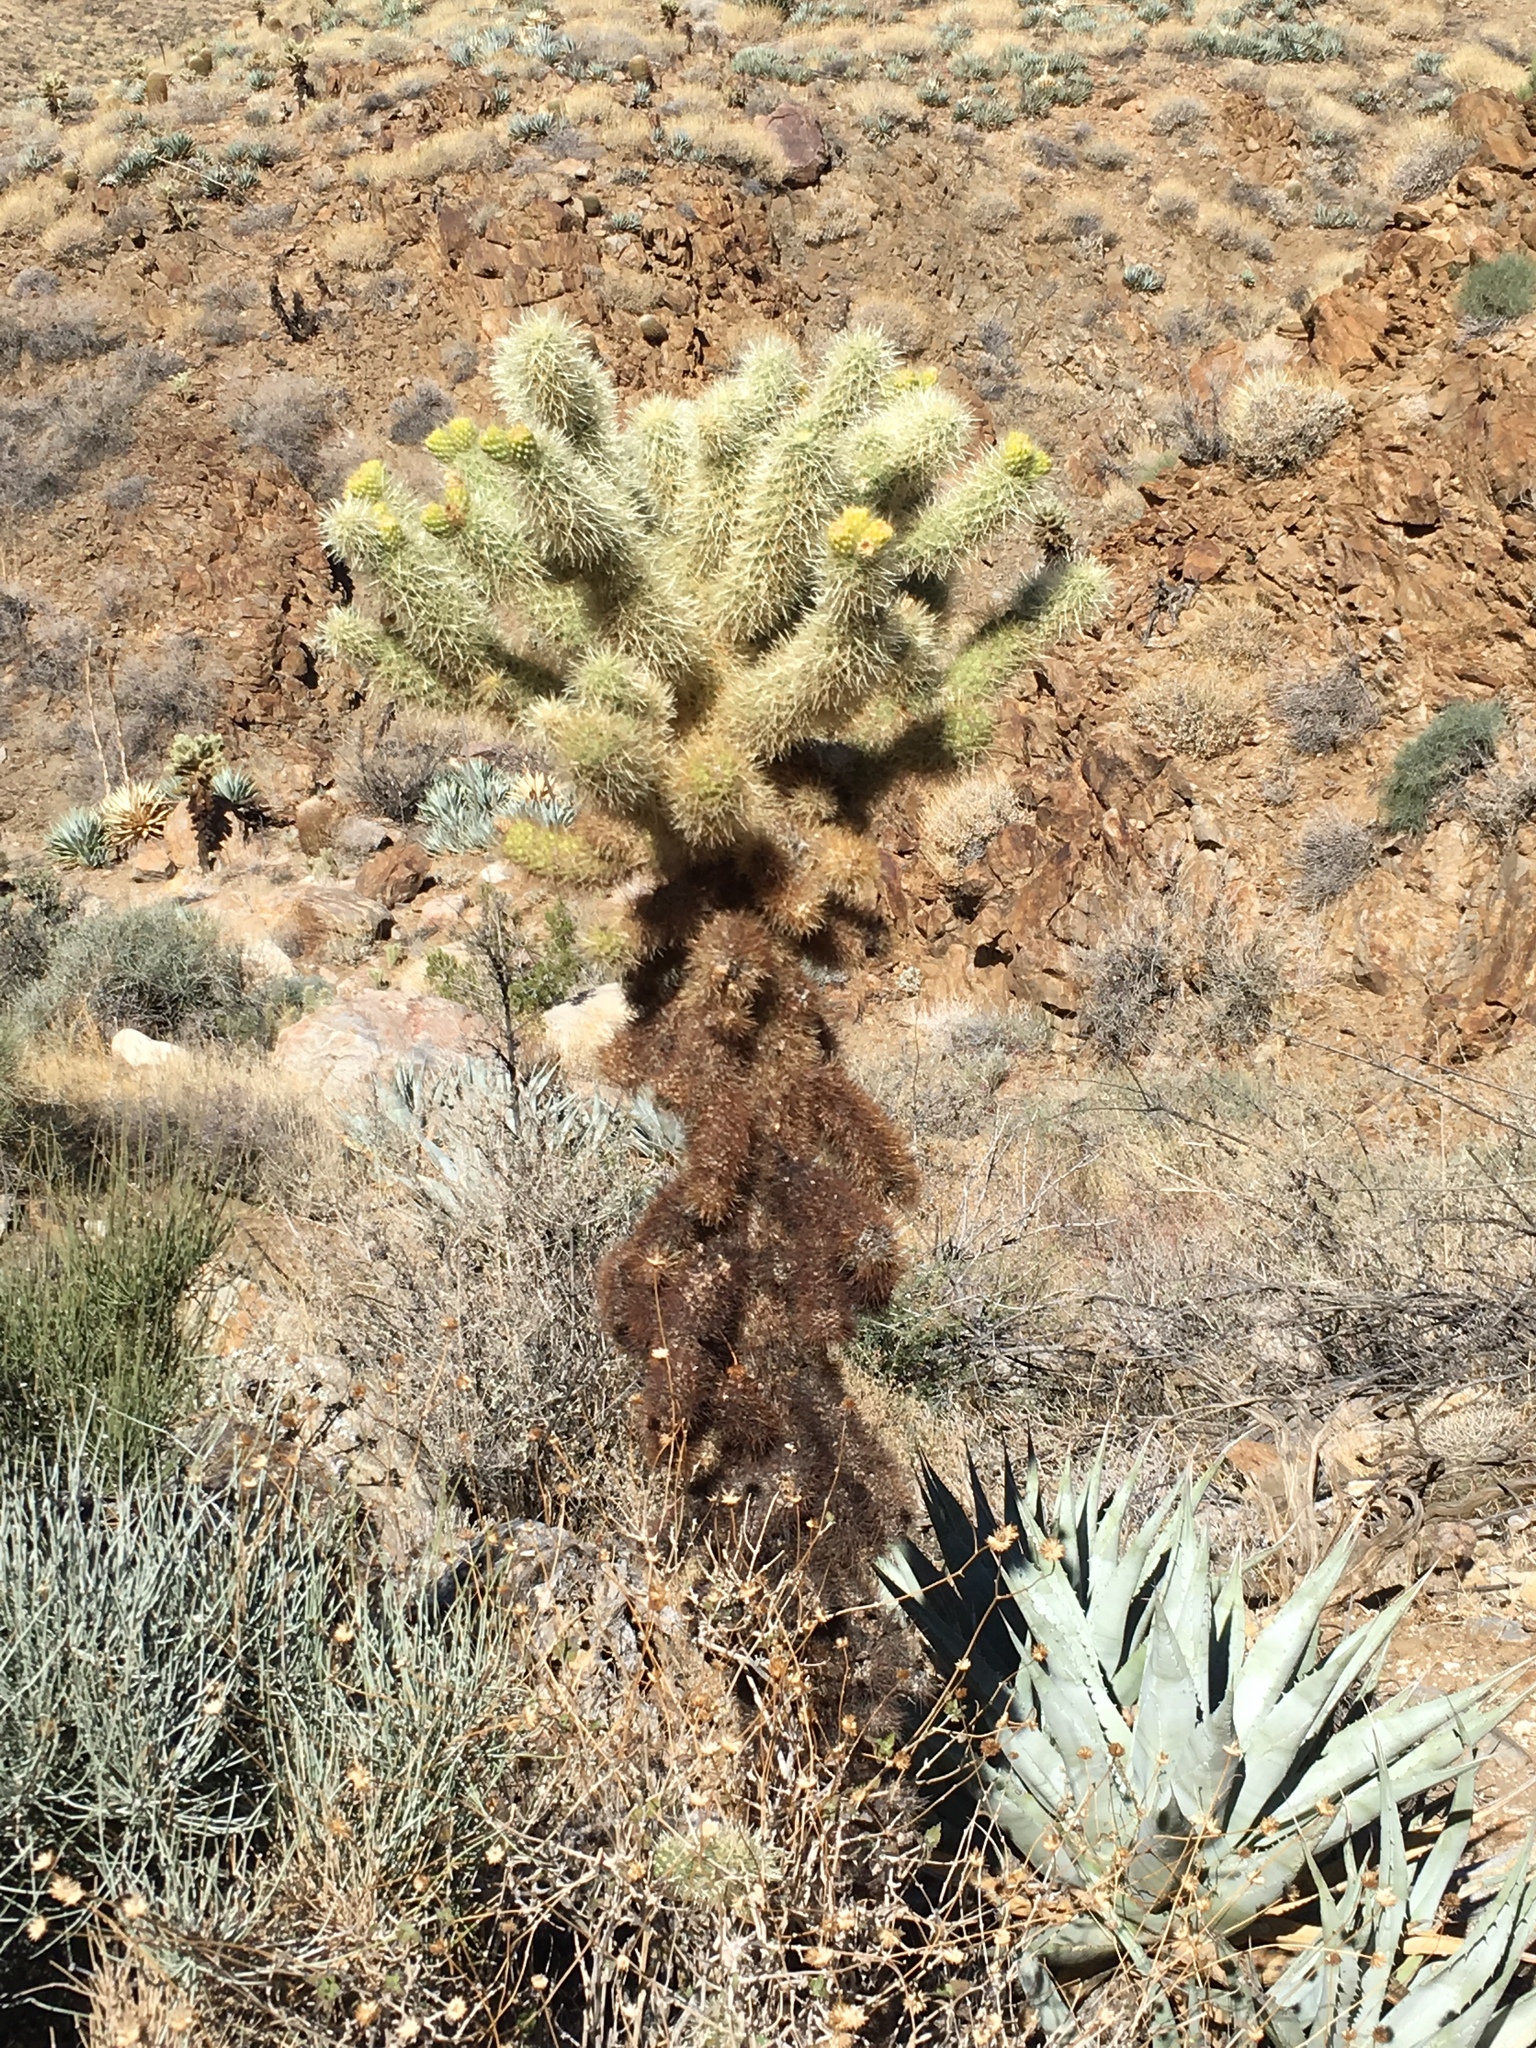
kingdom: Plantae
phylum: Tracheophyta
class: Magnoliopsida
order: Caryophyllales
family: Cactaceae
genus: Cylindropuntia
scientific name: Cylindropuntia fosbergii
